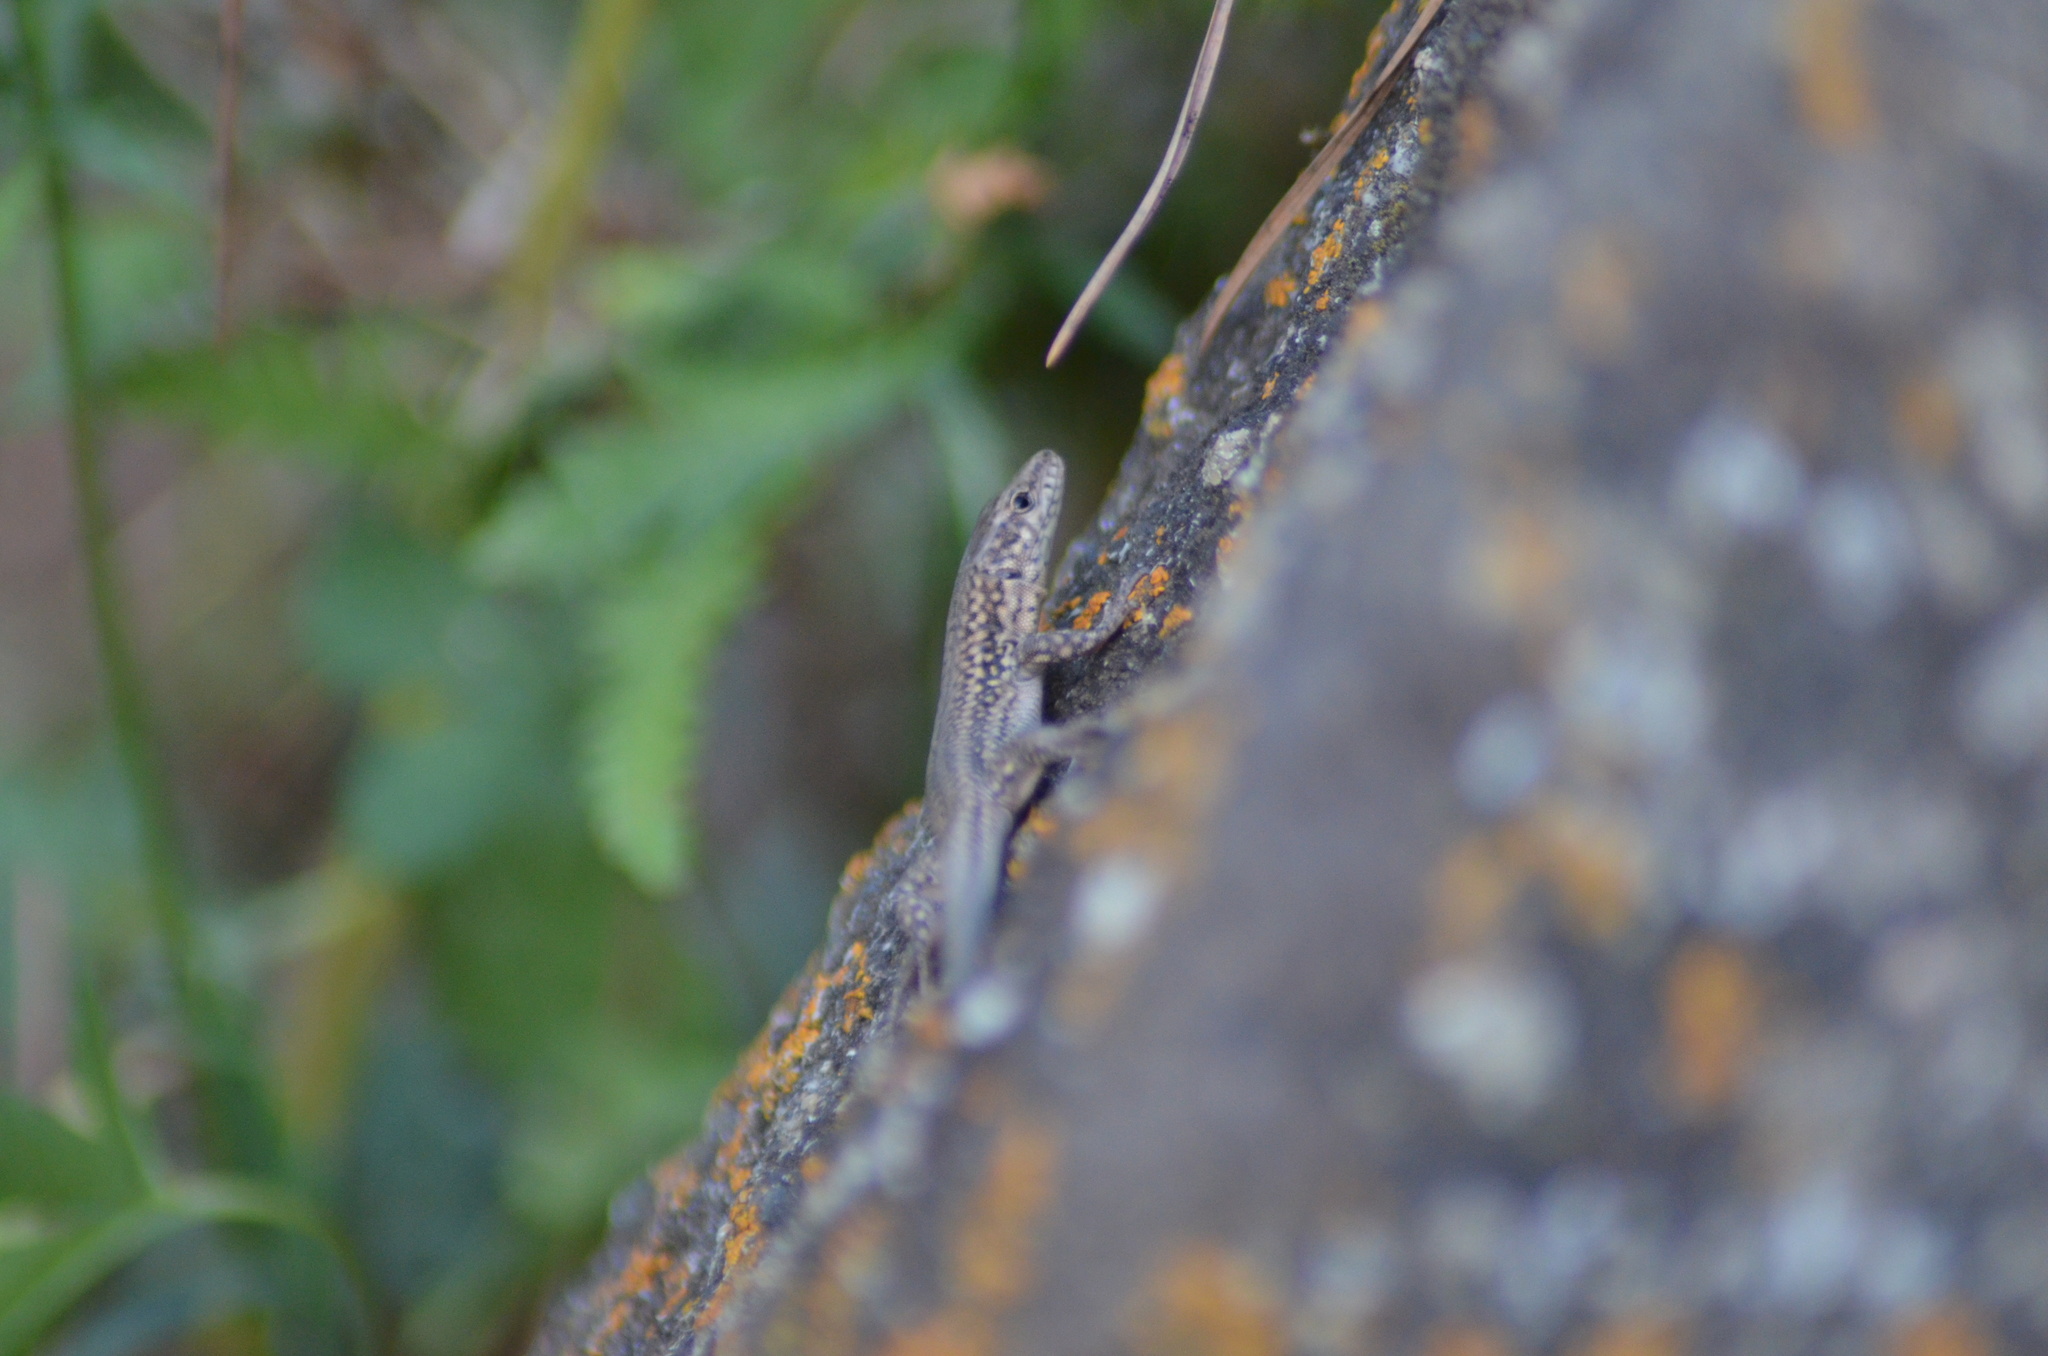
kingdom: Animalia
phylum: Chordata
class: Squamata
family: Lacertidae
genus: Podarcis
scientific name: Podarcis liolepis
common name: Catalonian wall lizard
